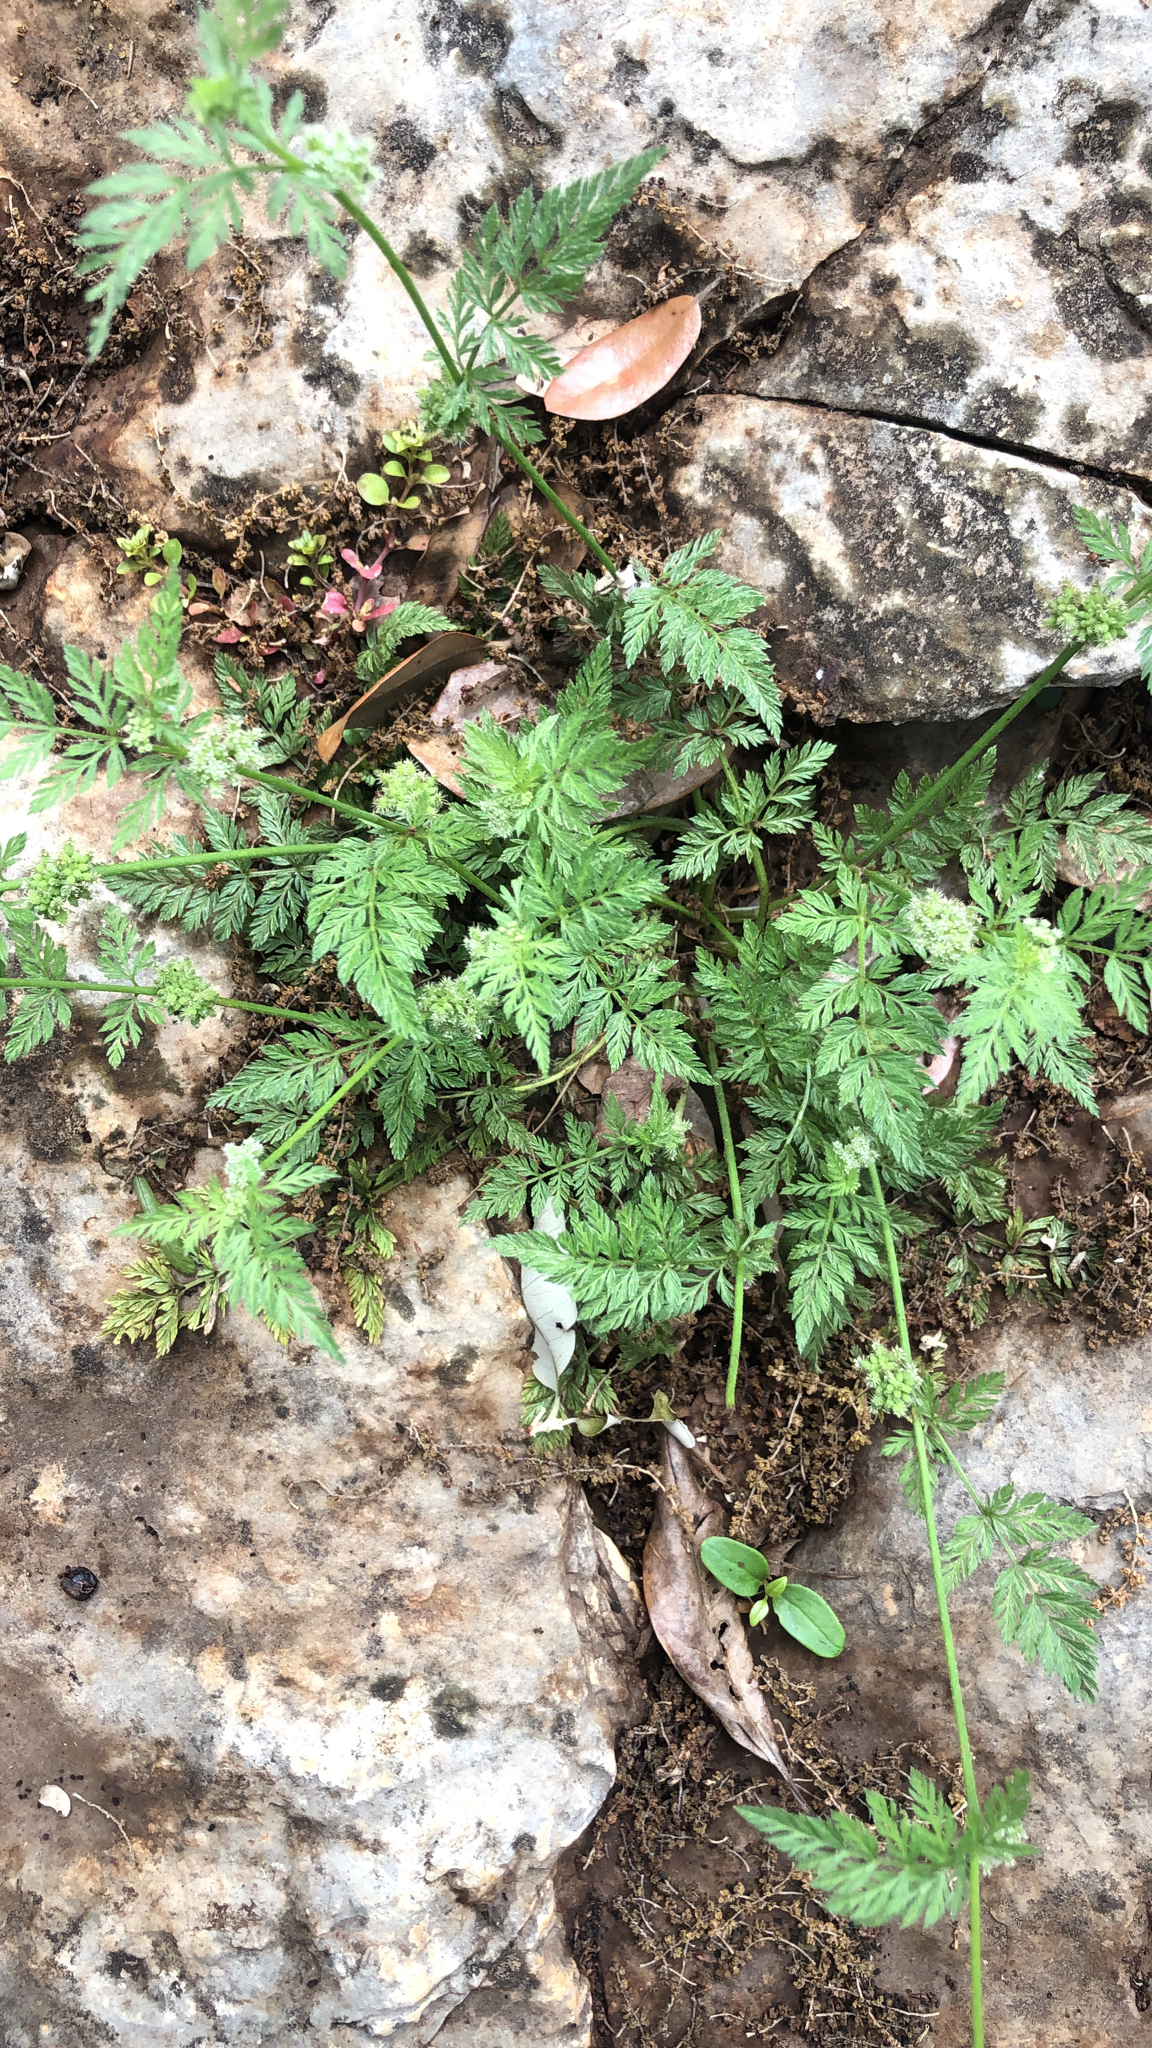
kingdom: Plantae
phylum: Tracheophyta
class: Magnoliopsida
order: Apiales
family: Apiaceae
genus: Torilis
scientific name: Torilis nodosa
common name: Knotted hedge-parsley
